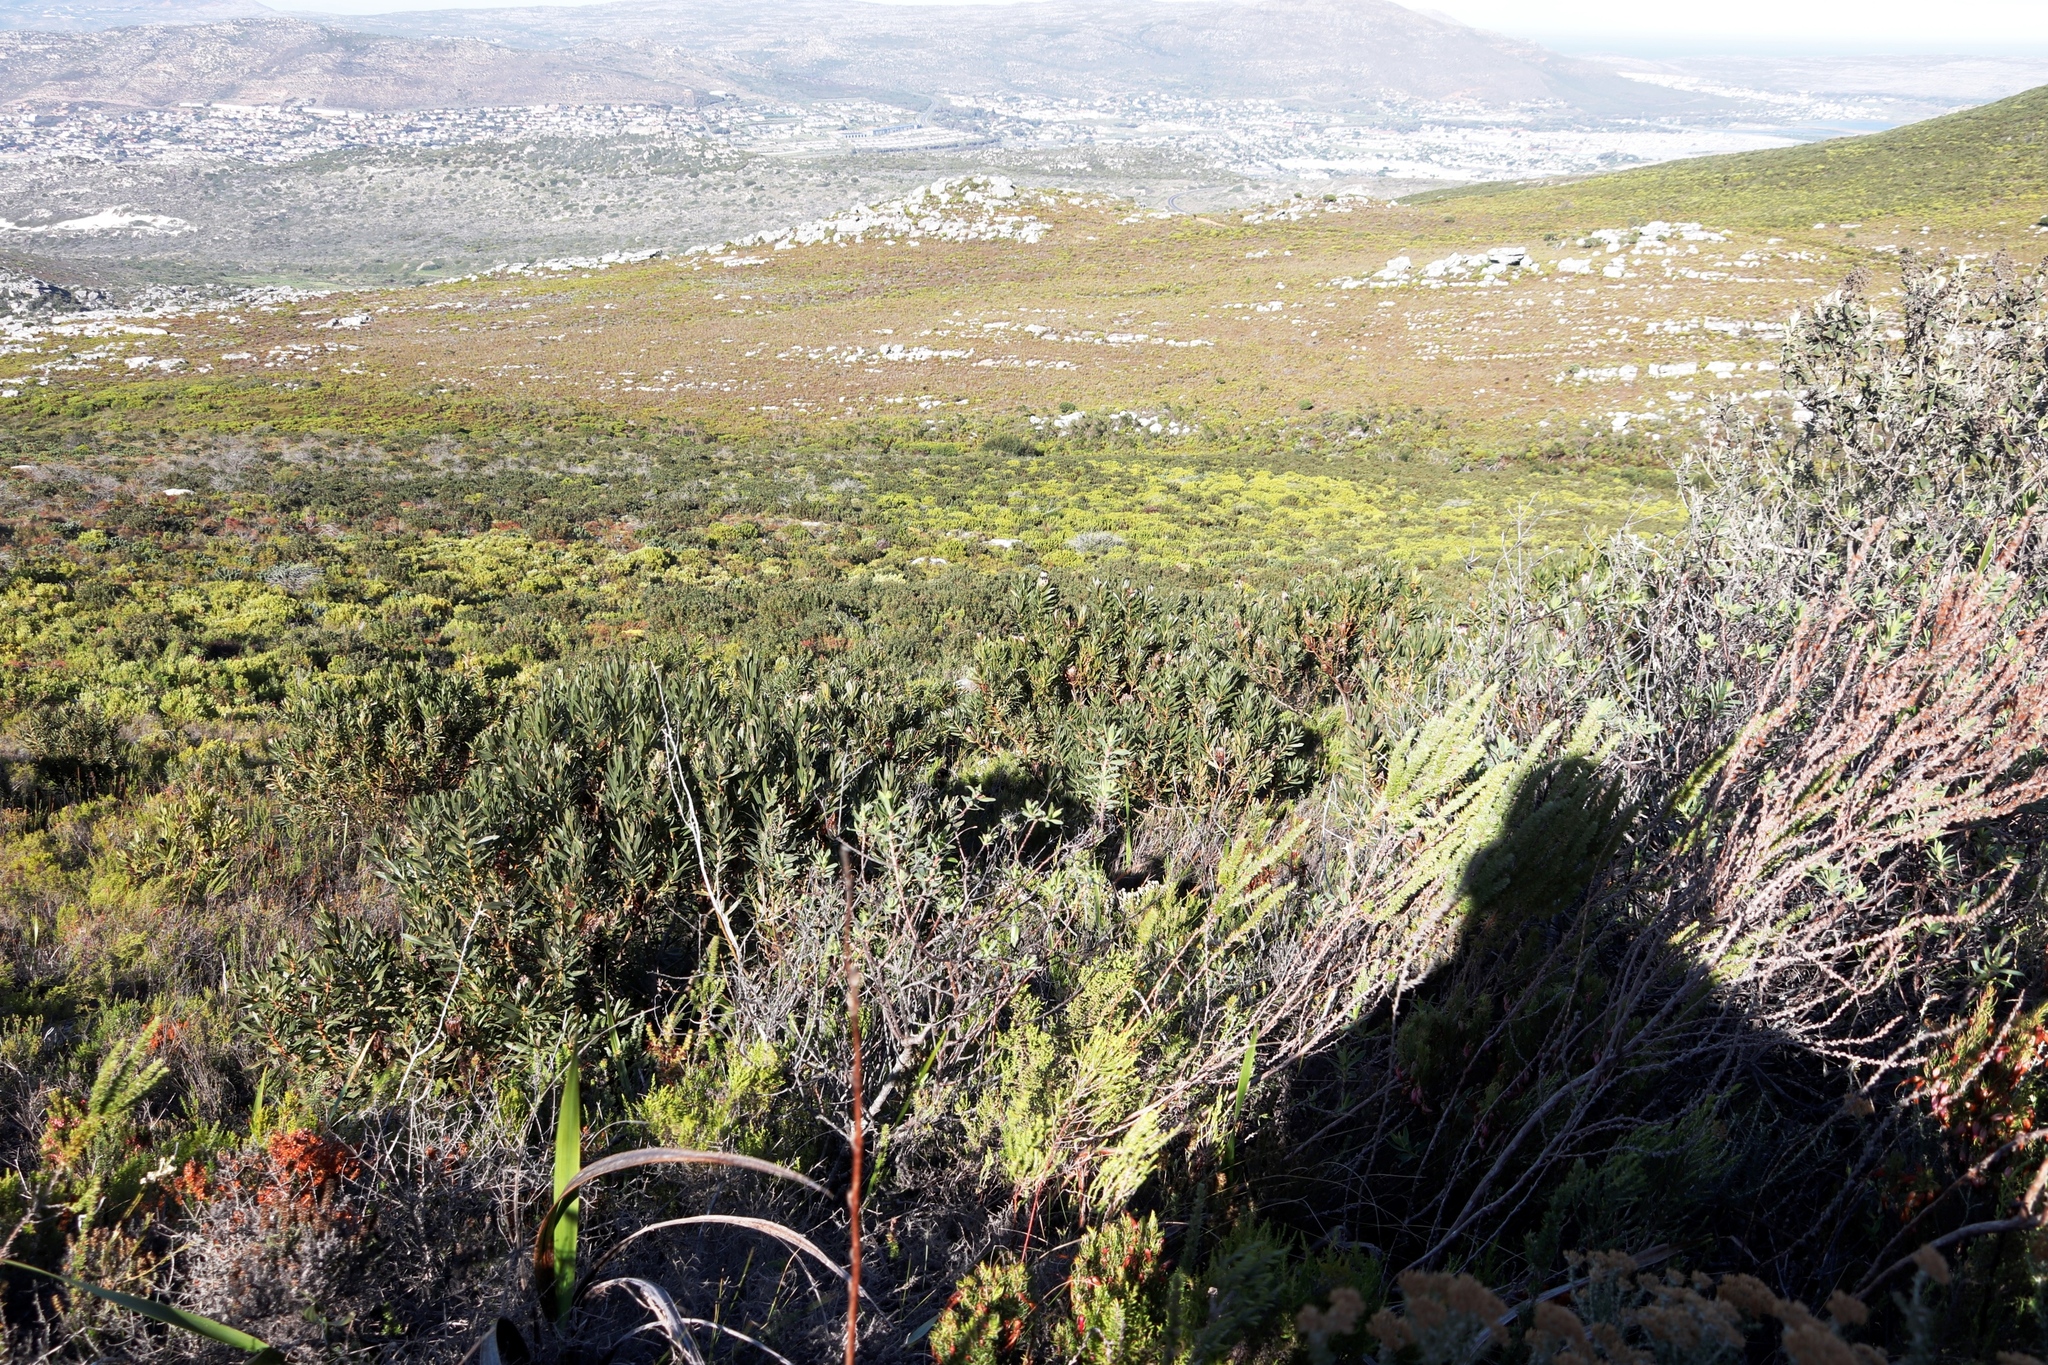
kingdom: Plantae
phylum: Tracheophyta
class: Magnoliopsida
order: Proteales
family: Proteaceae
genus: Protea
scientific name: Protea lepidocarpodendron
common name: Black-bearded protea
